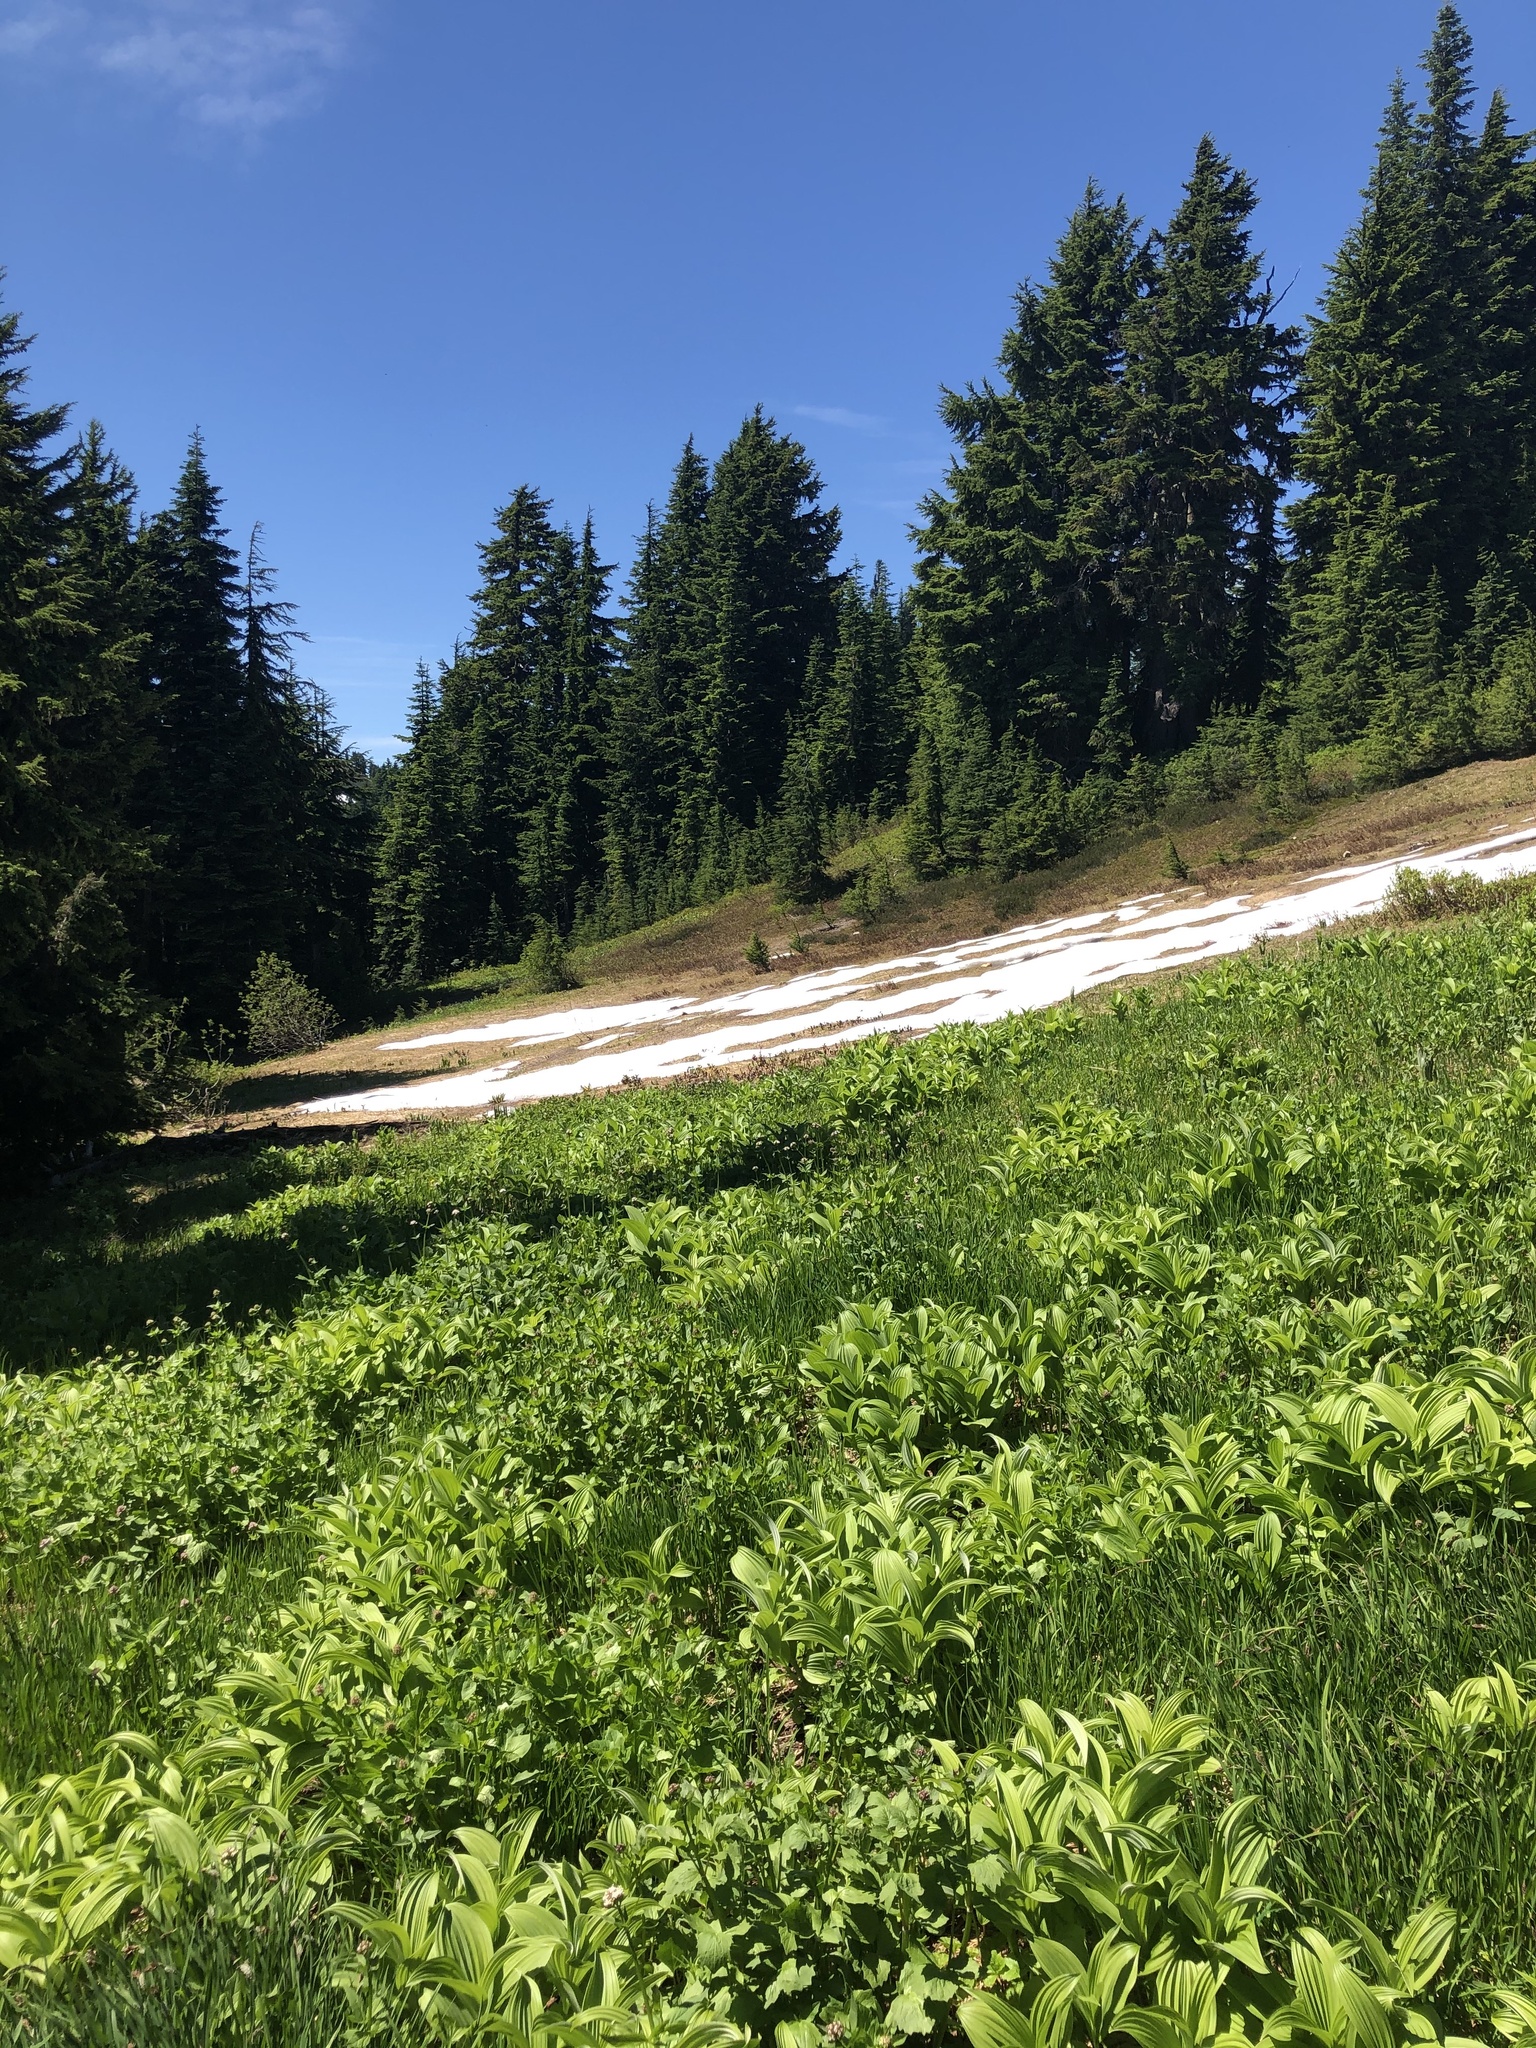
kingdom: Plantae
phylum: Tracheophyta
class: Liliopsida
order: Liliales
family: Melanthiaceae
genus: Veratrum
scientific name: Veratrum viride
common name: American false hellebore
